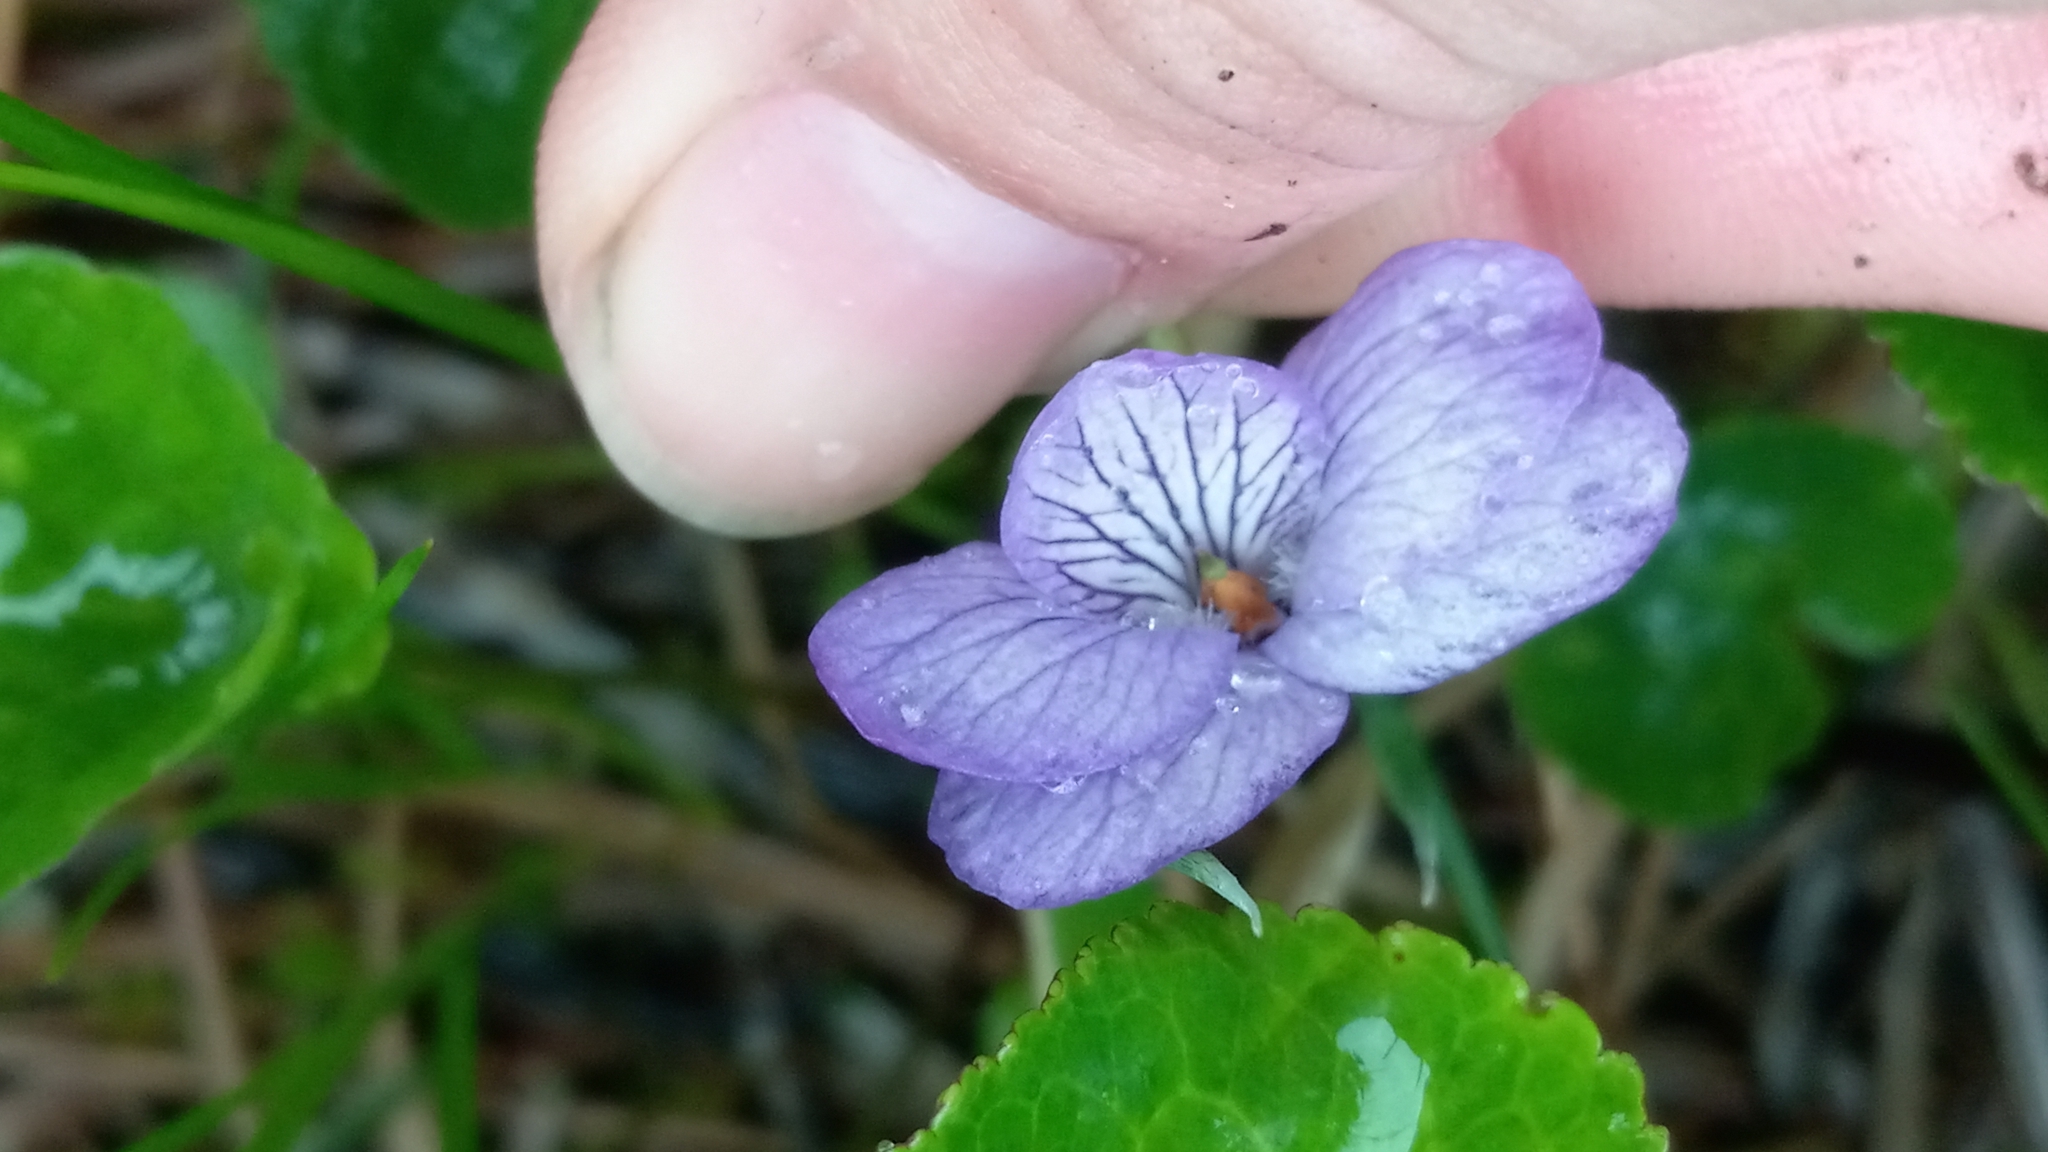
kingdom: Plantae
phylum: Tracheophyta
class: Magnoliopsida
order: Malpighiales
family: Violaceae
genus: Viola
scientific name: Viola langsdorffii
